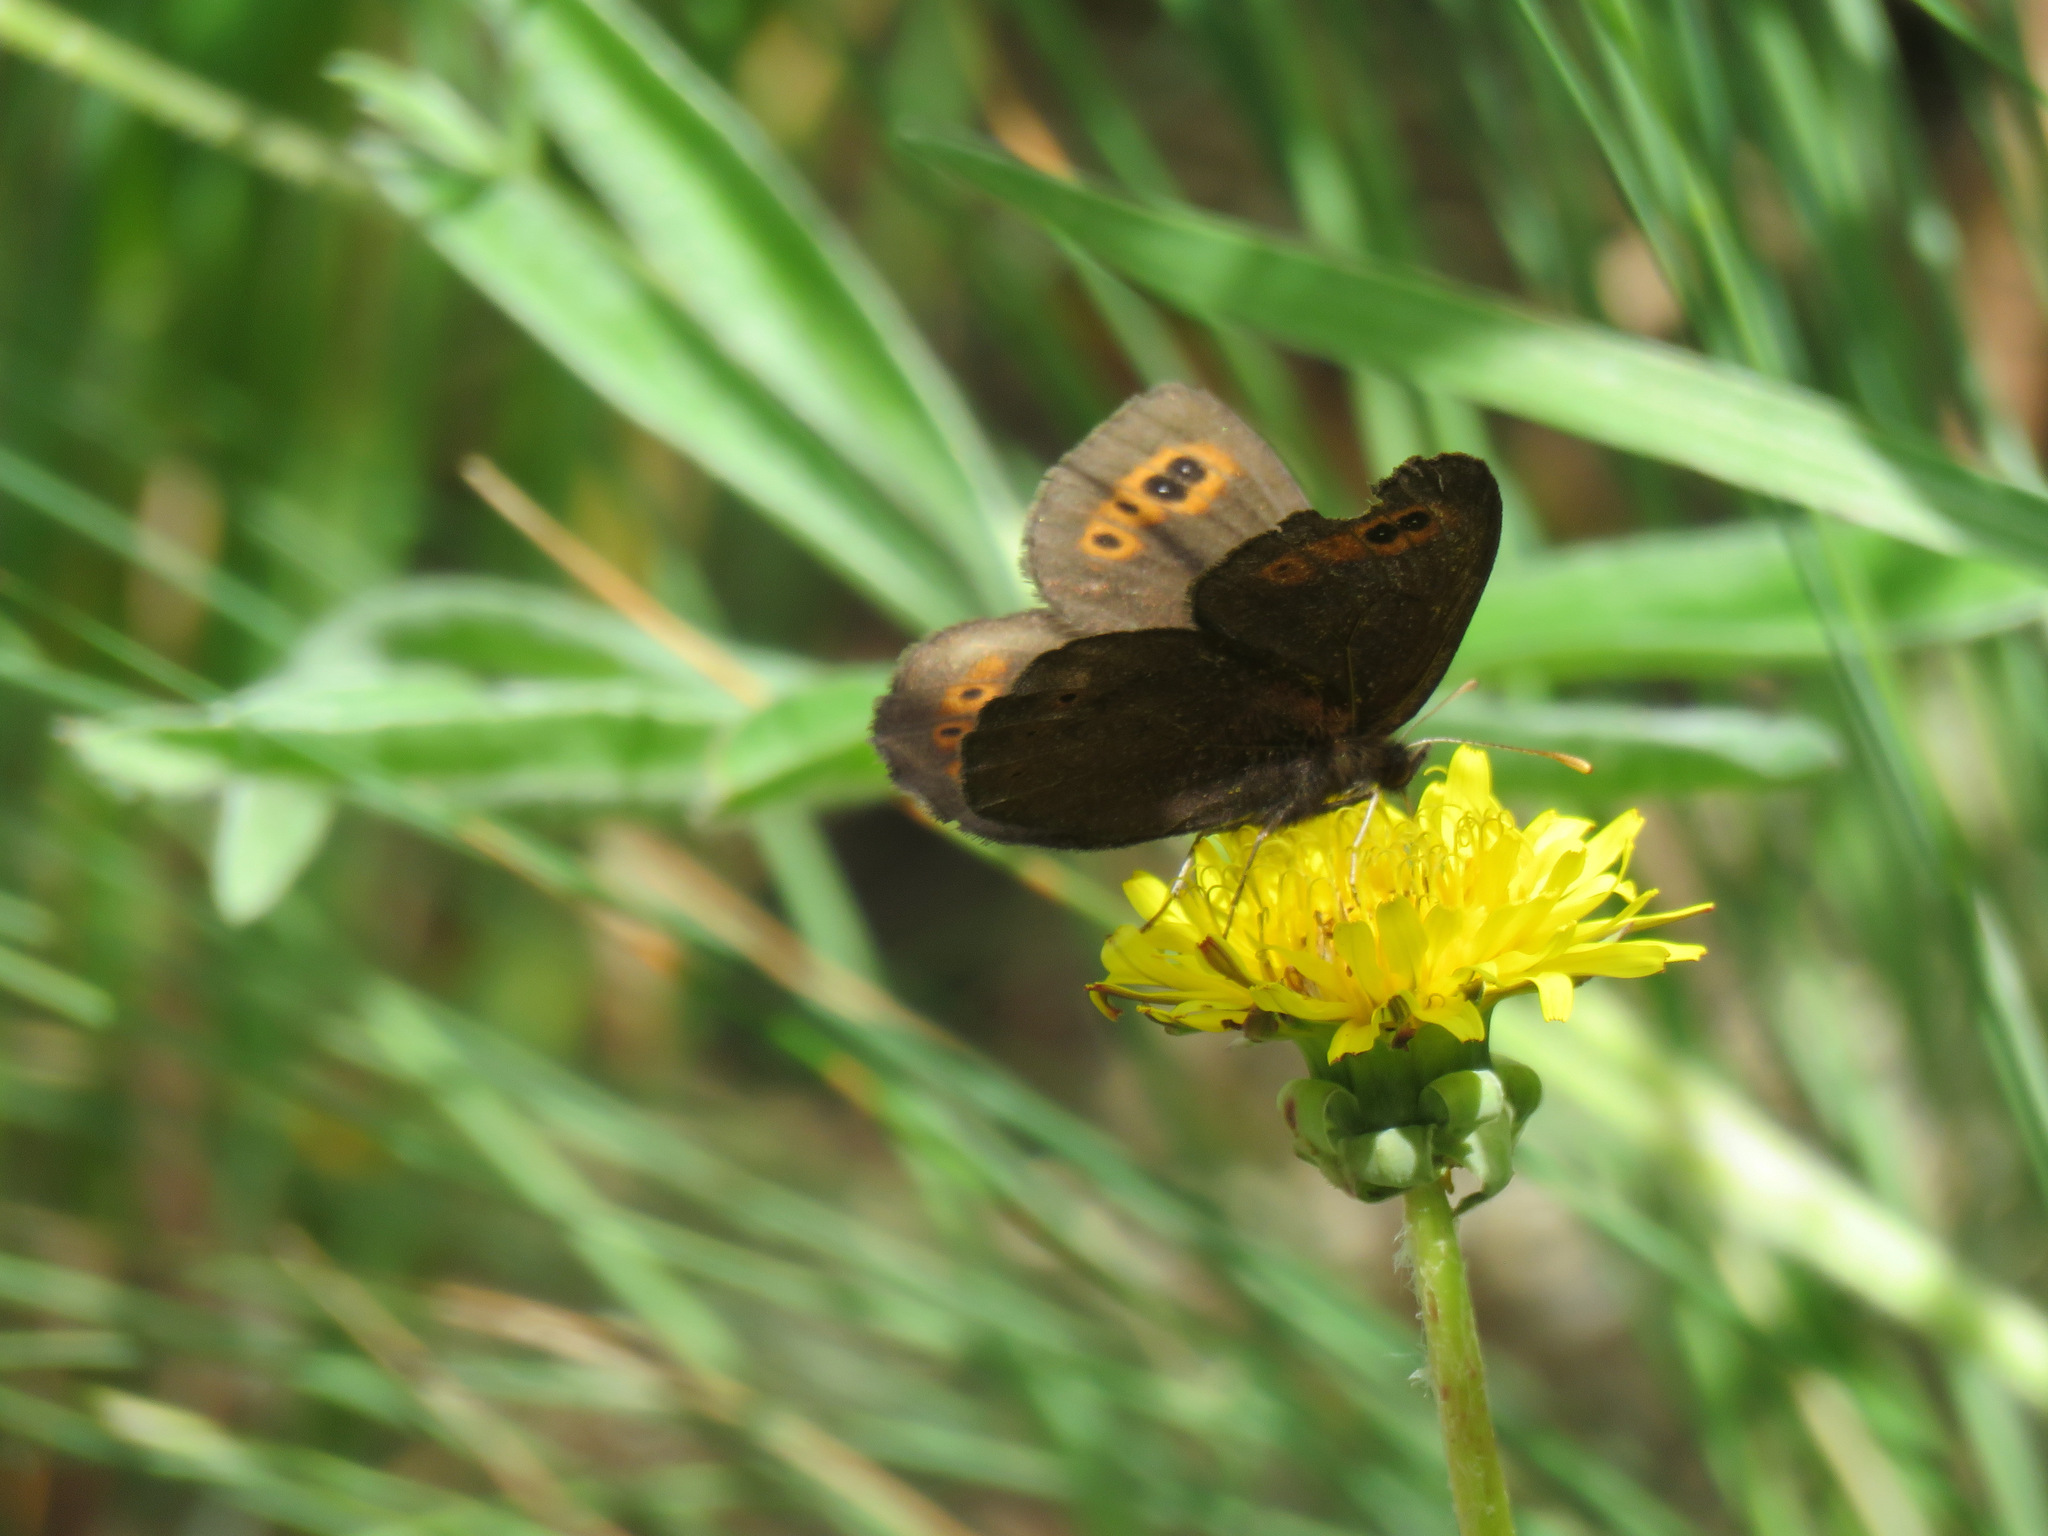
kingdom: Animalia
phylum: Arthropoda
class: Insecta
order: Lepidoptera
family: Nymphalidae
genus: Erebia
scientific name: Erebia epipsodea
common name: Common alpine
